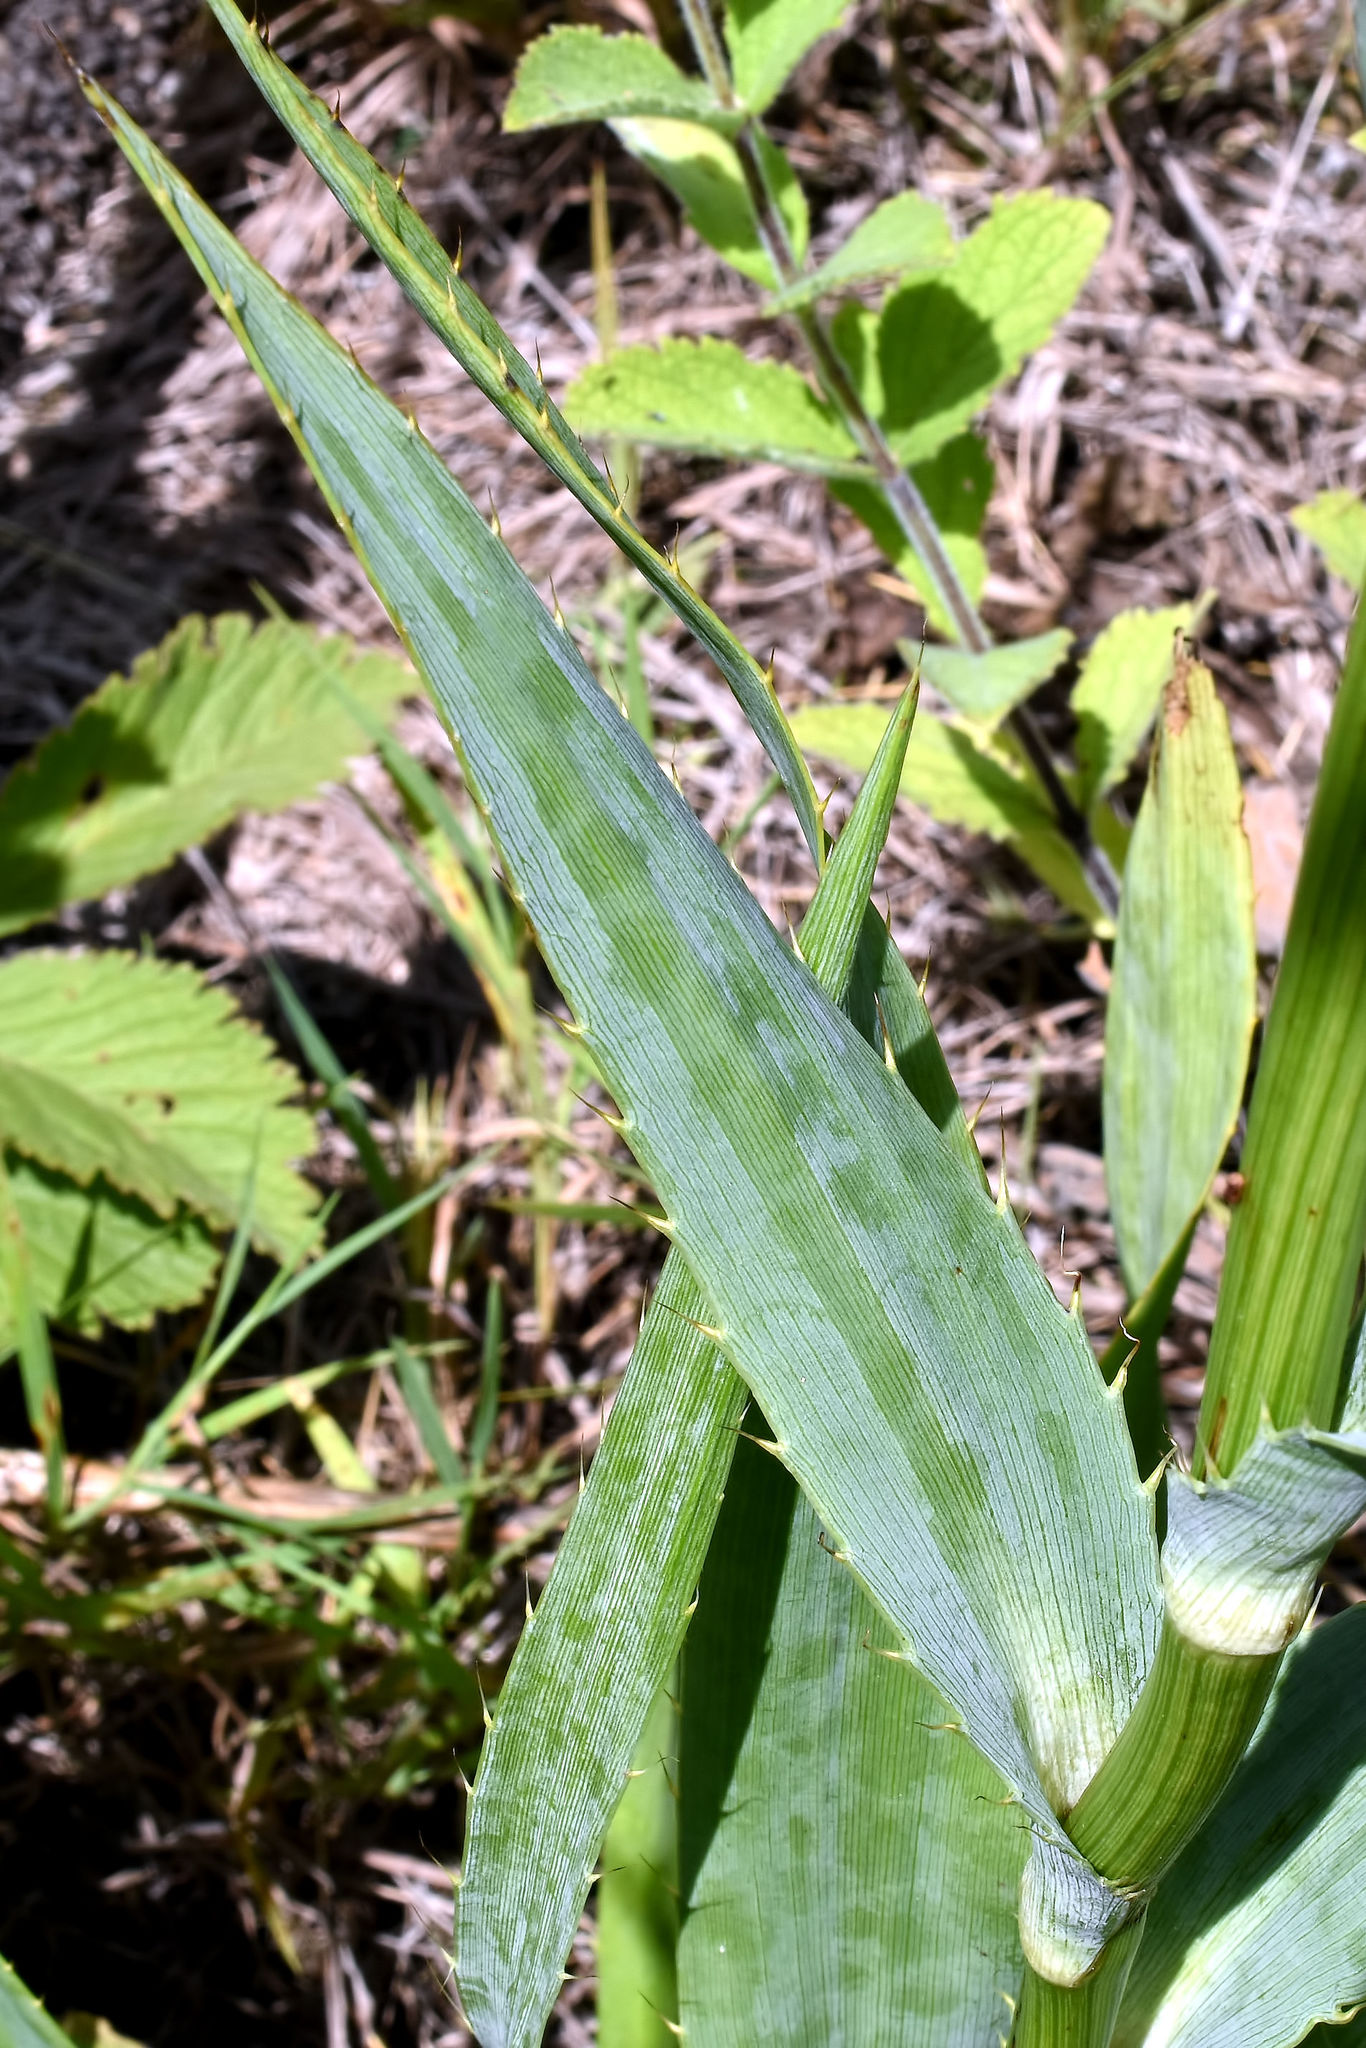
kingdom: Plantae
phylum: Tracheophyta
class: Magnoliopsida
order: Apiales
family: Apiaceae
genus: Eryngium
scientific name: Eryngium yuccifolium
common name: Button eryngo
